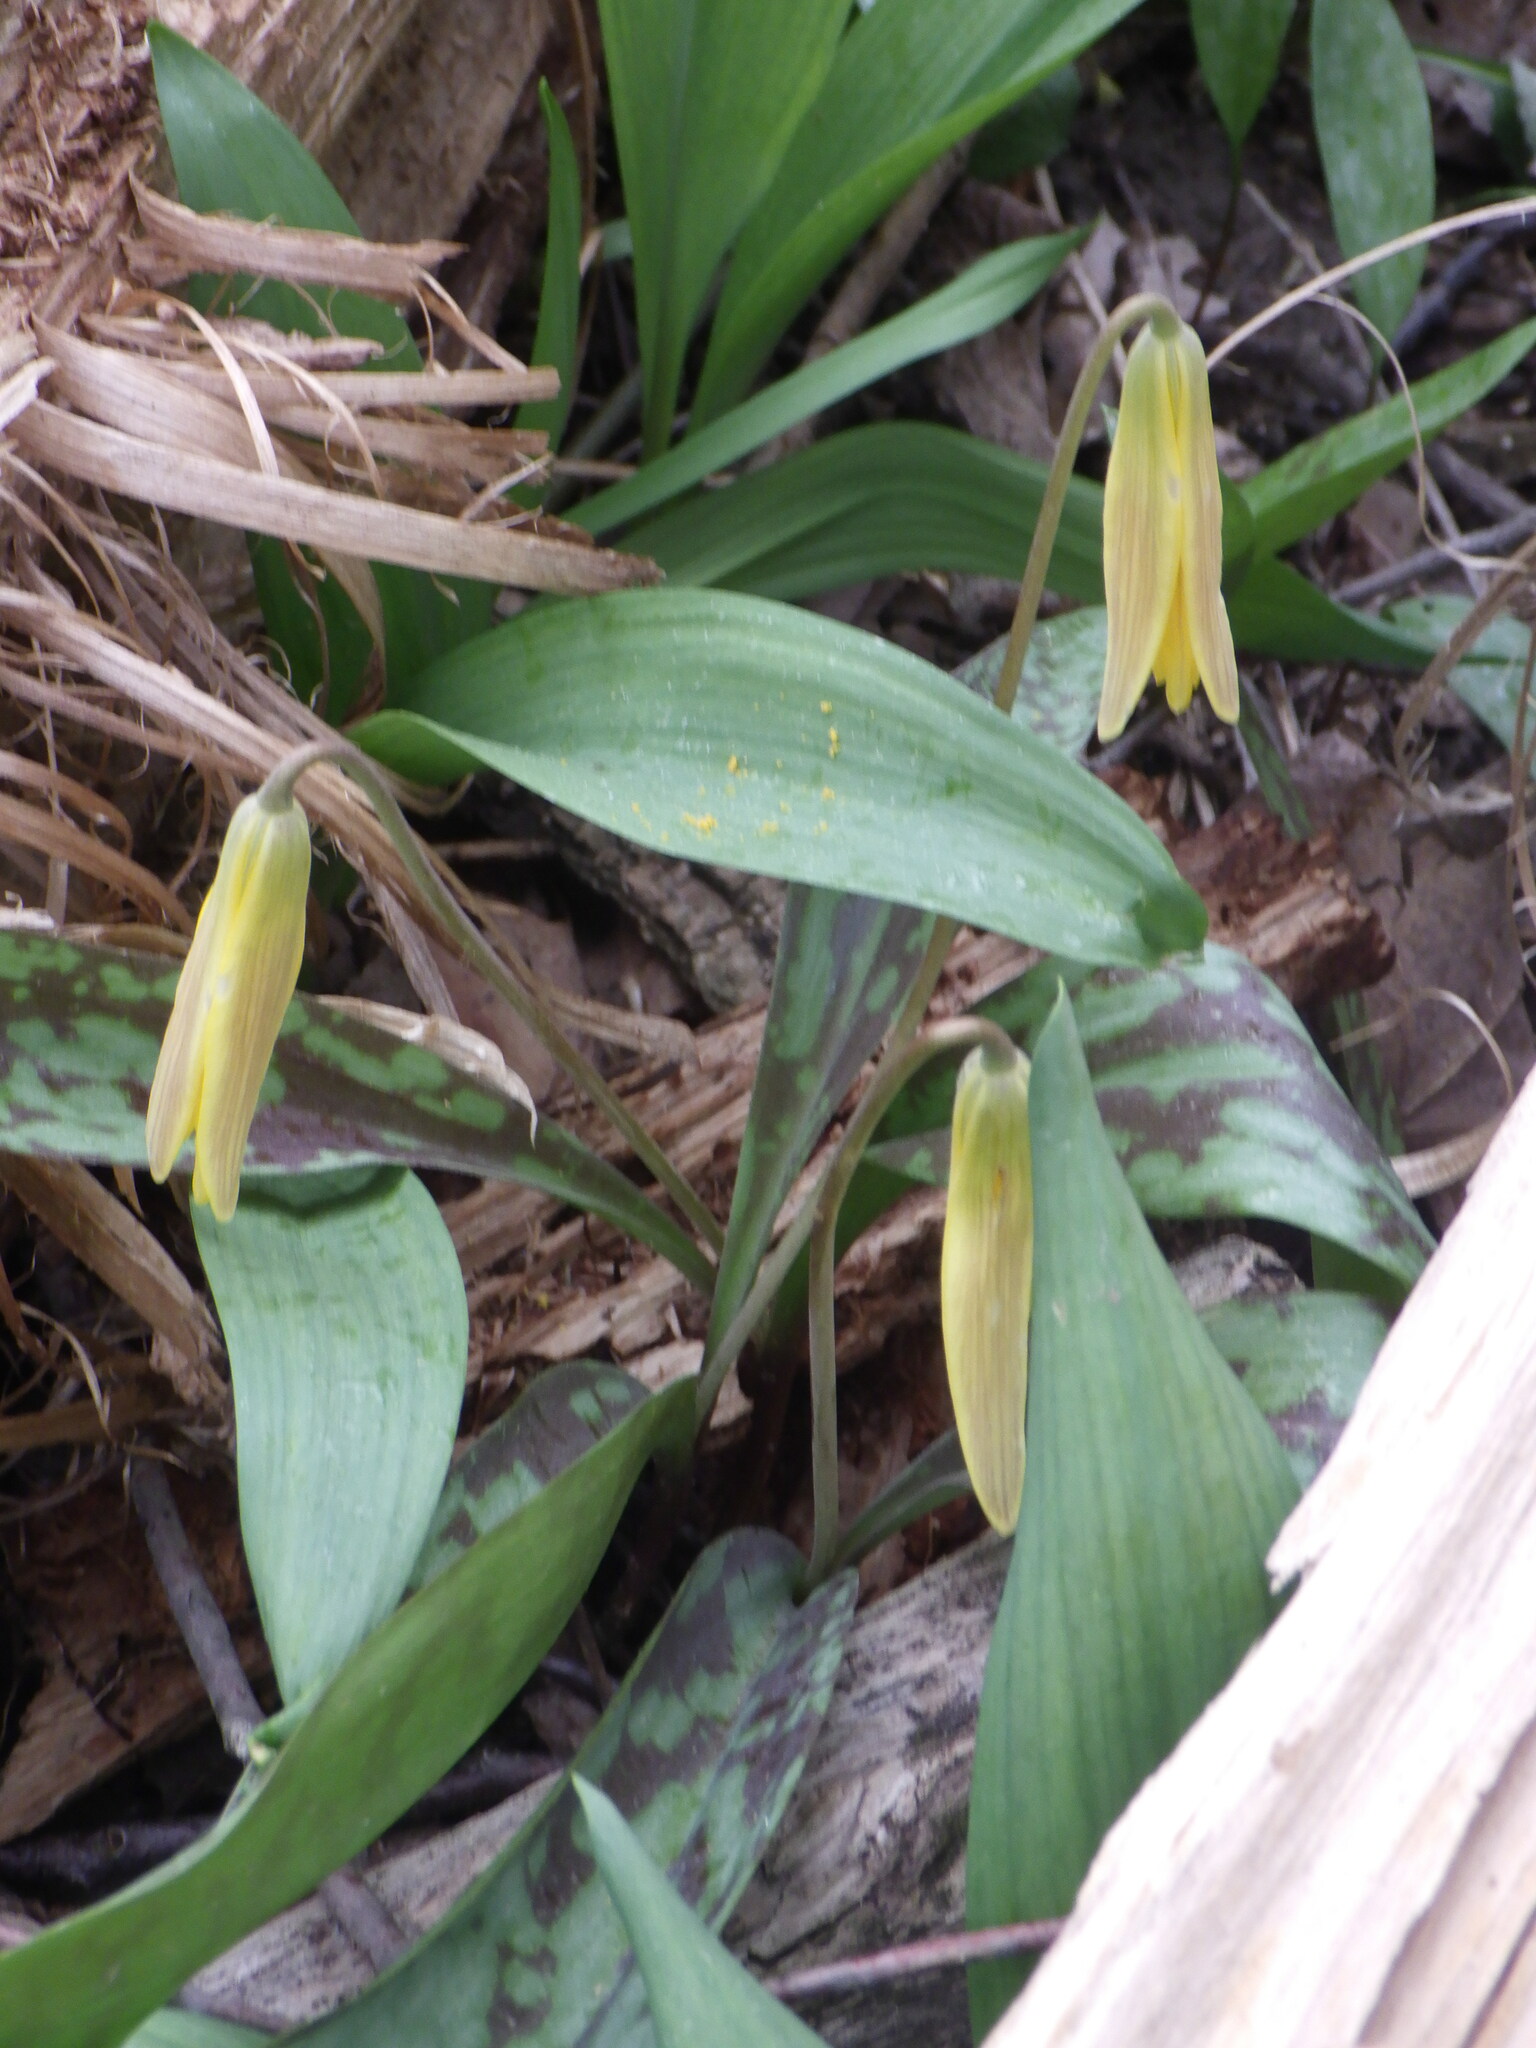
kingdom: Plantae
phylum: Tracheophyta
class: Liliopsida
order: Liliales
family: Liliaceae
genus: Erythronium
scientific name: Erythronium americanum
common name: Yellow adder's-tongue
